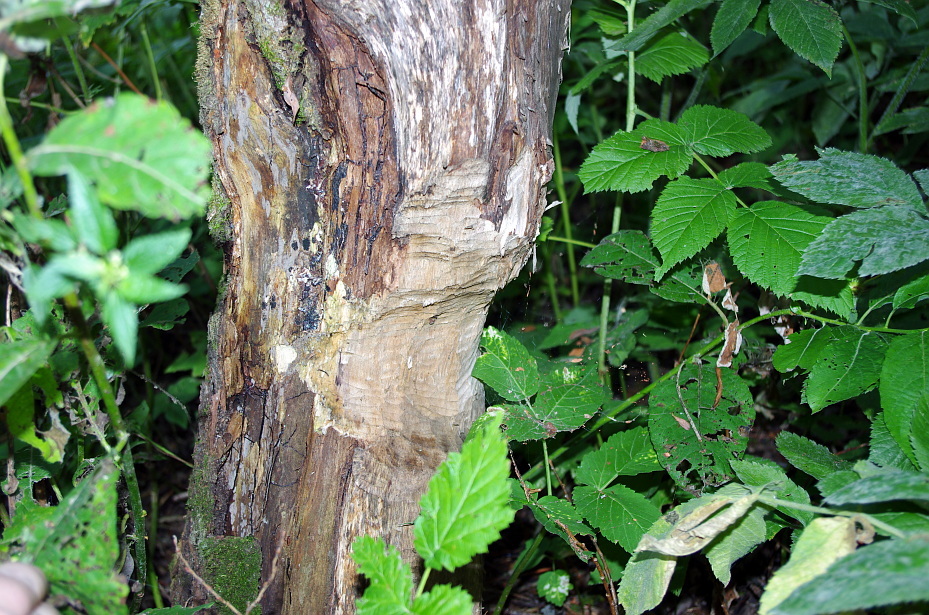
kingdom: Animalia
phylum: Chordata
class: Mammalia
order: Rodentia
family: Castoridae
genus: Castor
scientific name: Castor fiber
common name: Eurasian beaver
